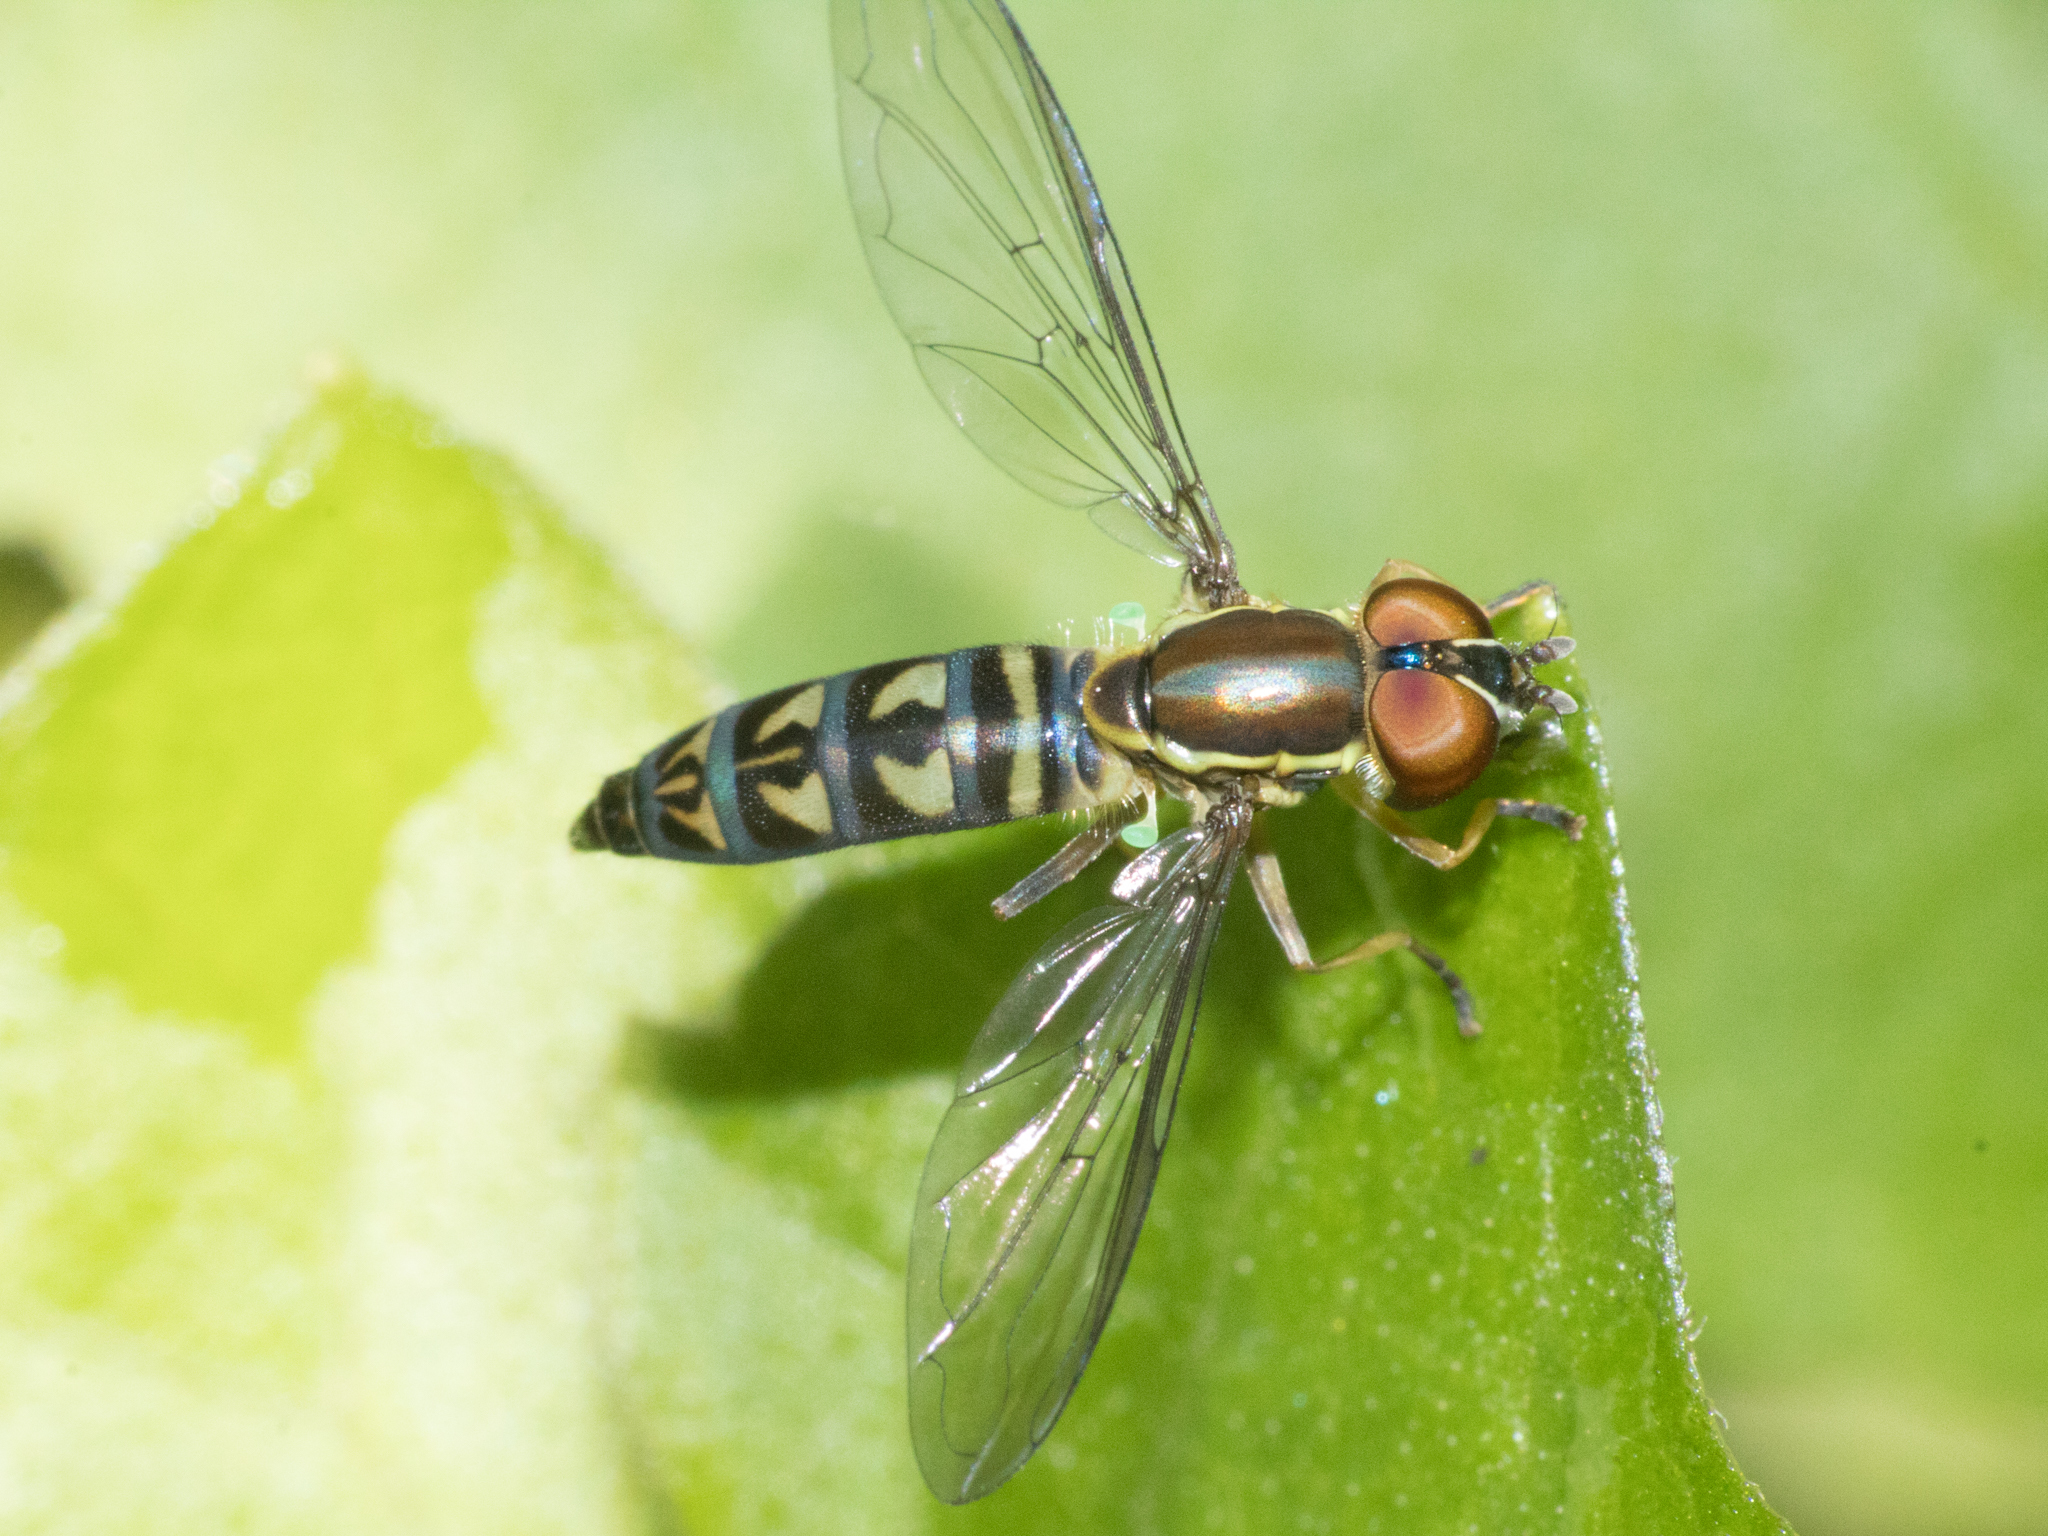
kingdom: Animalia
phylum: Arthropoda
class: Insecta
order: Diptera
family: Syrphidae
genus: Toxomerus
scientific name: Toxomerus tibicen
